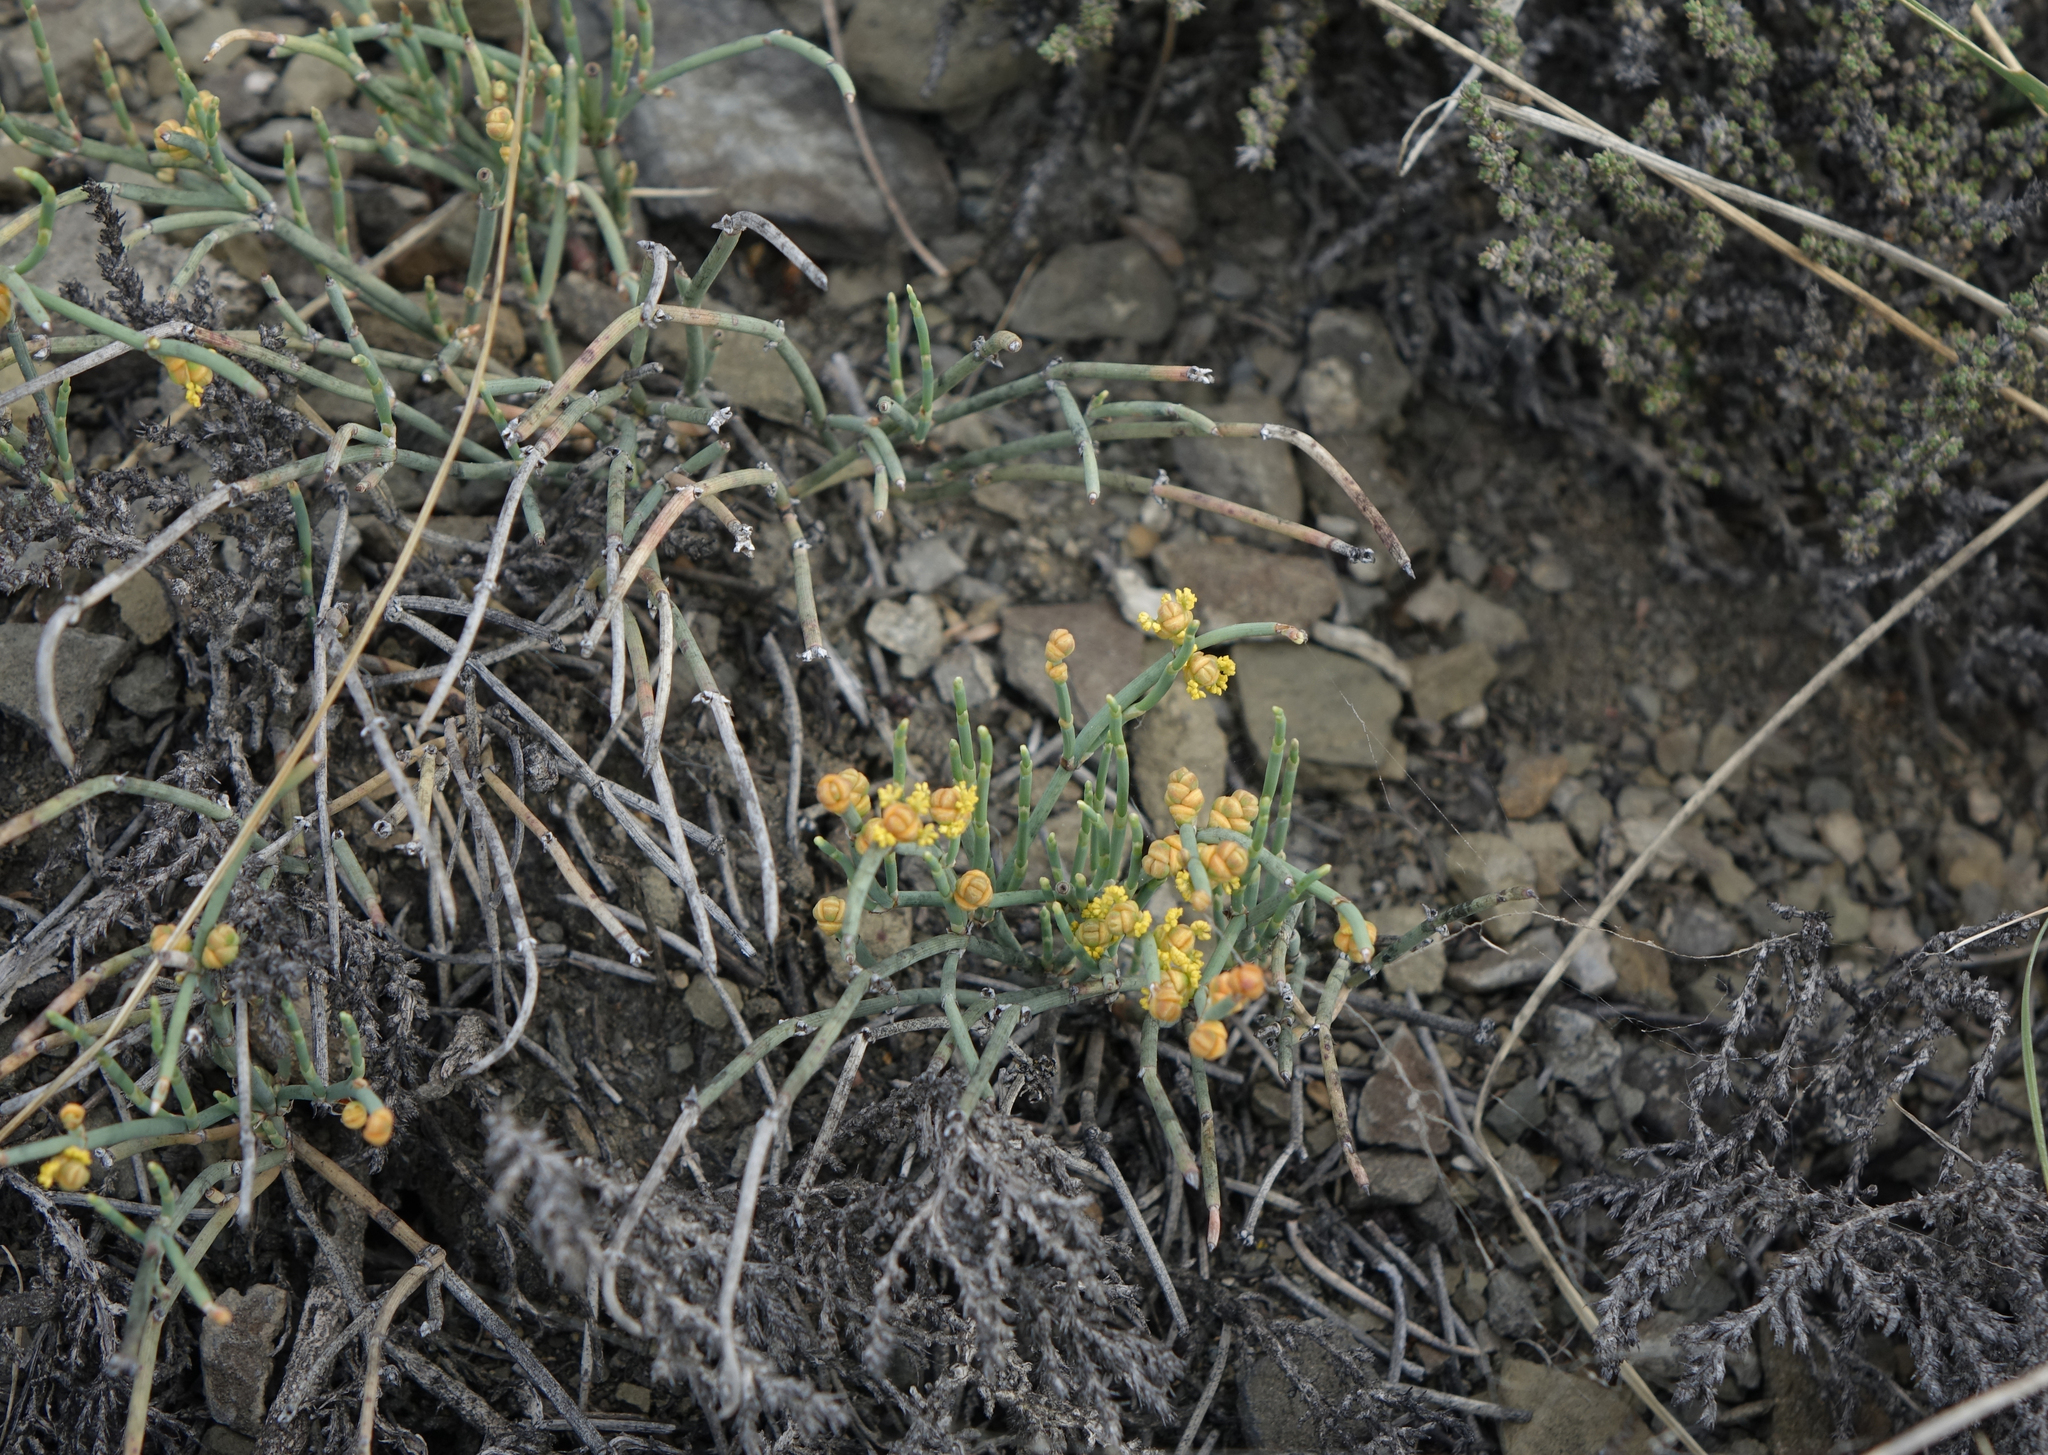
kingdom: Plantae
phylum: Tracheophyta
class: Gnetopsida
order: Ephedrales
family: Ephedraceae
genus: Ephedra
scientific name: Ephedra monosperma
